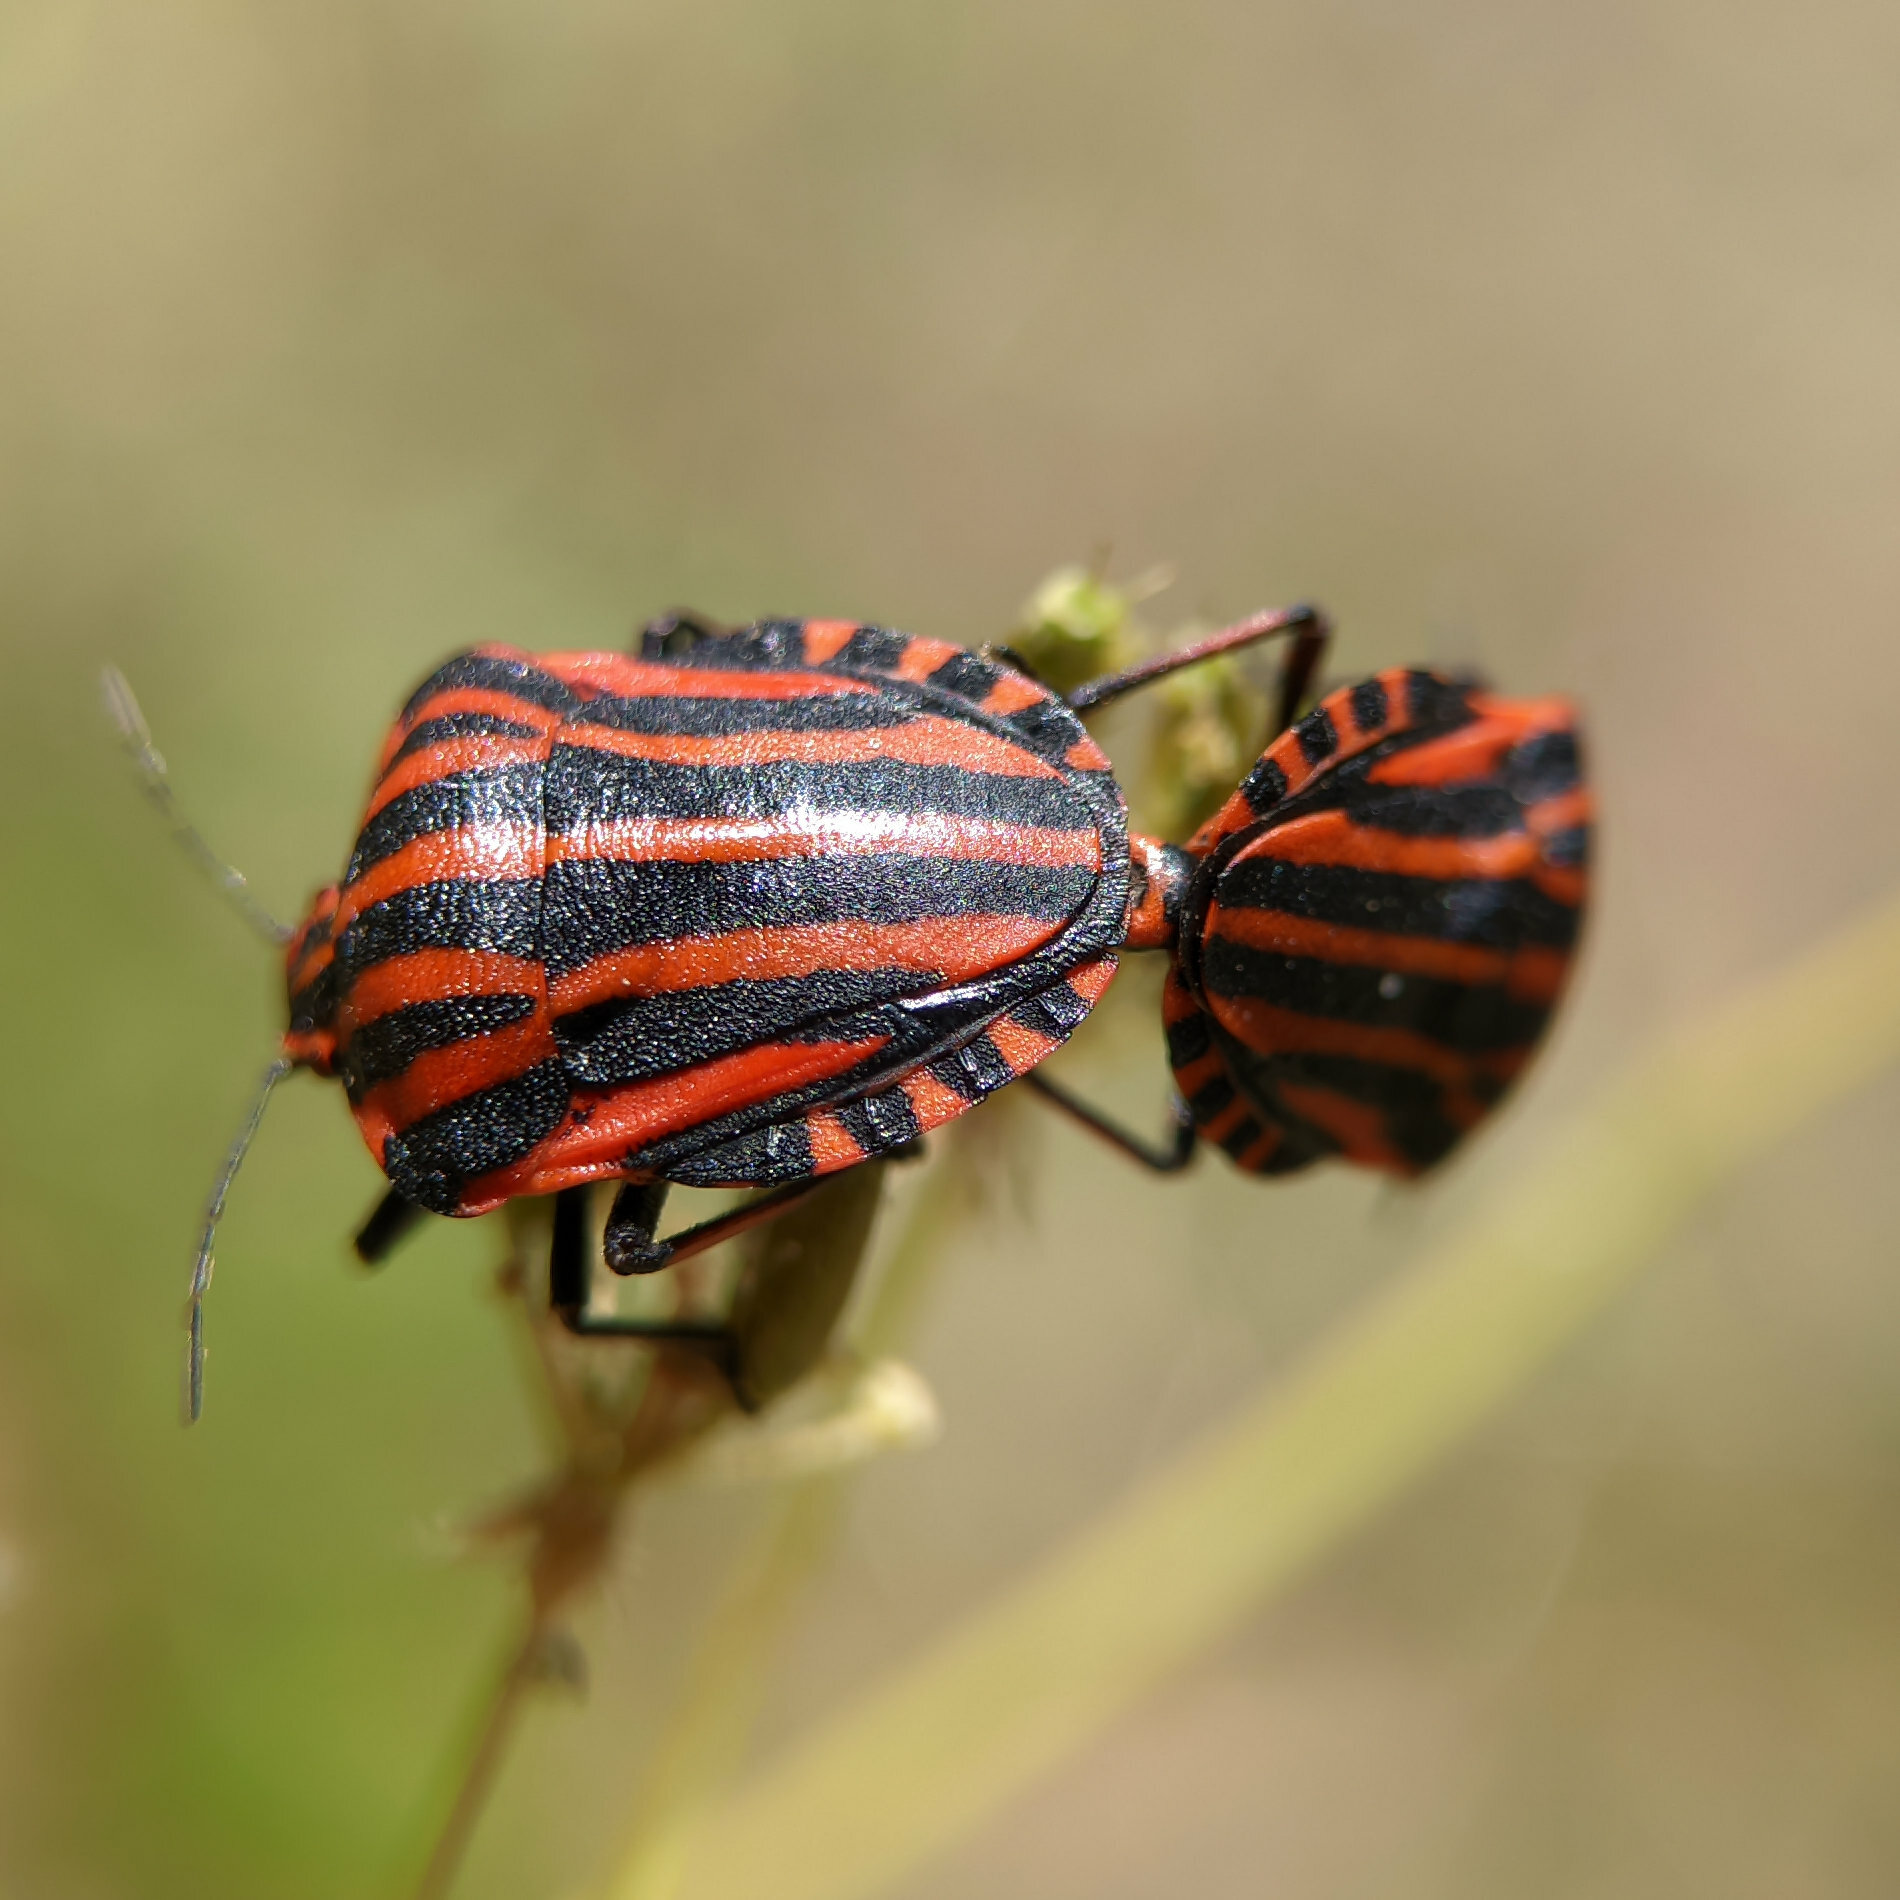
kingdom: Animalia
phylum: Arthropoda
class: Insecta
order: Hemiptera
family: Pentatomidae
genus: Graphosoma
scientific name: Graphosoma italicum
